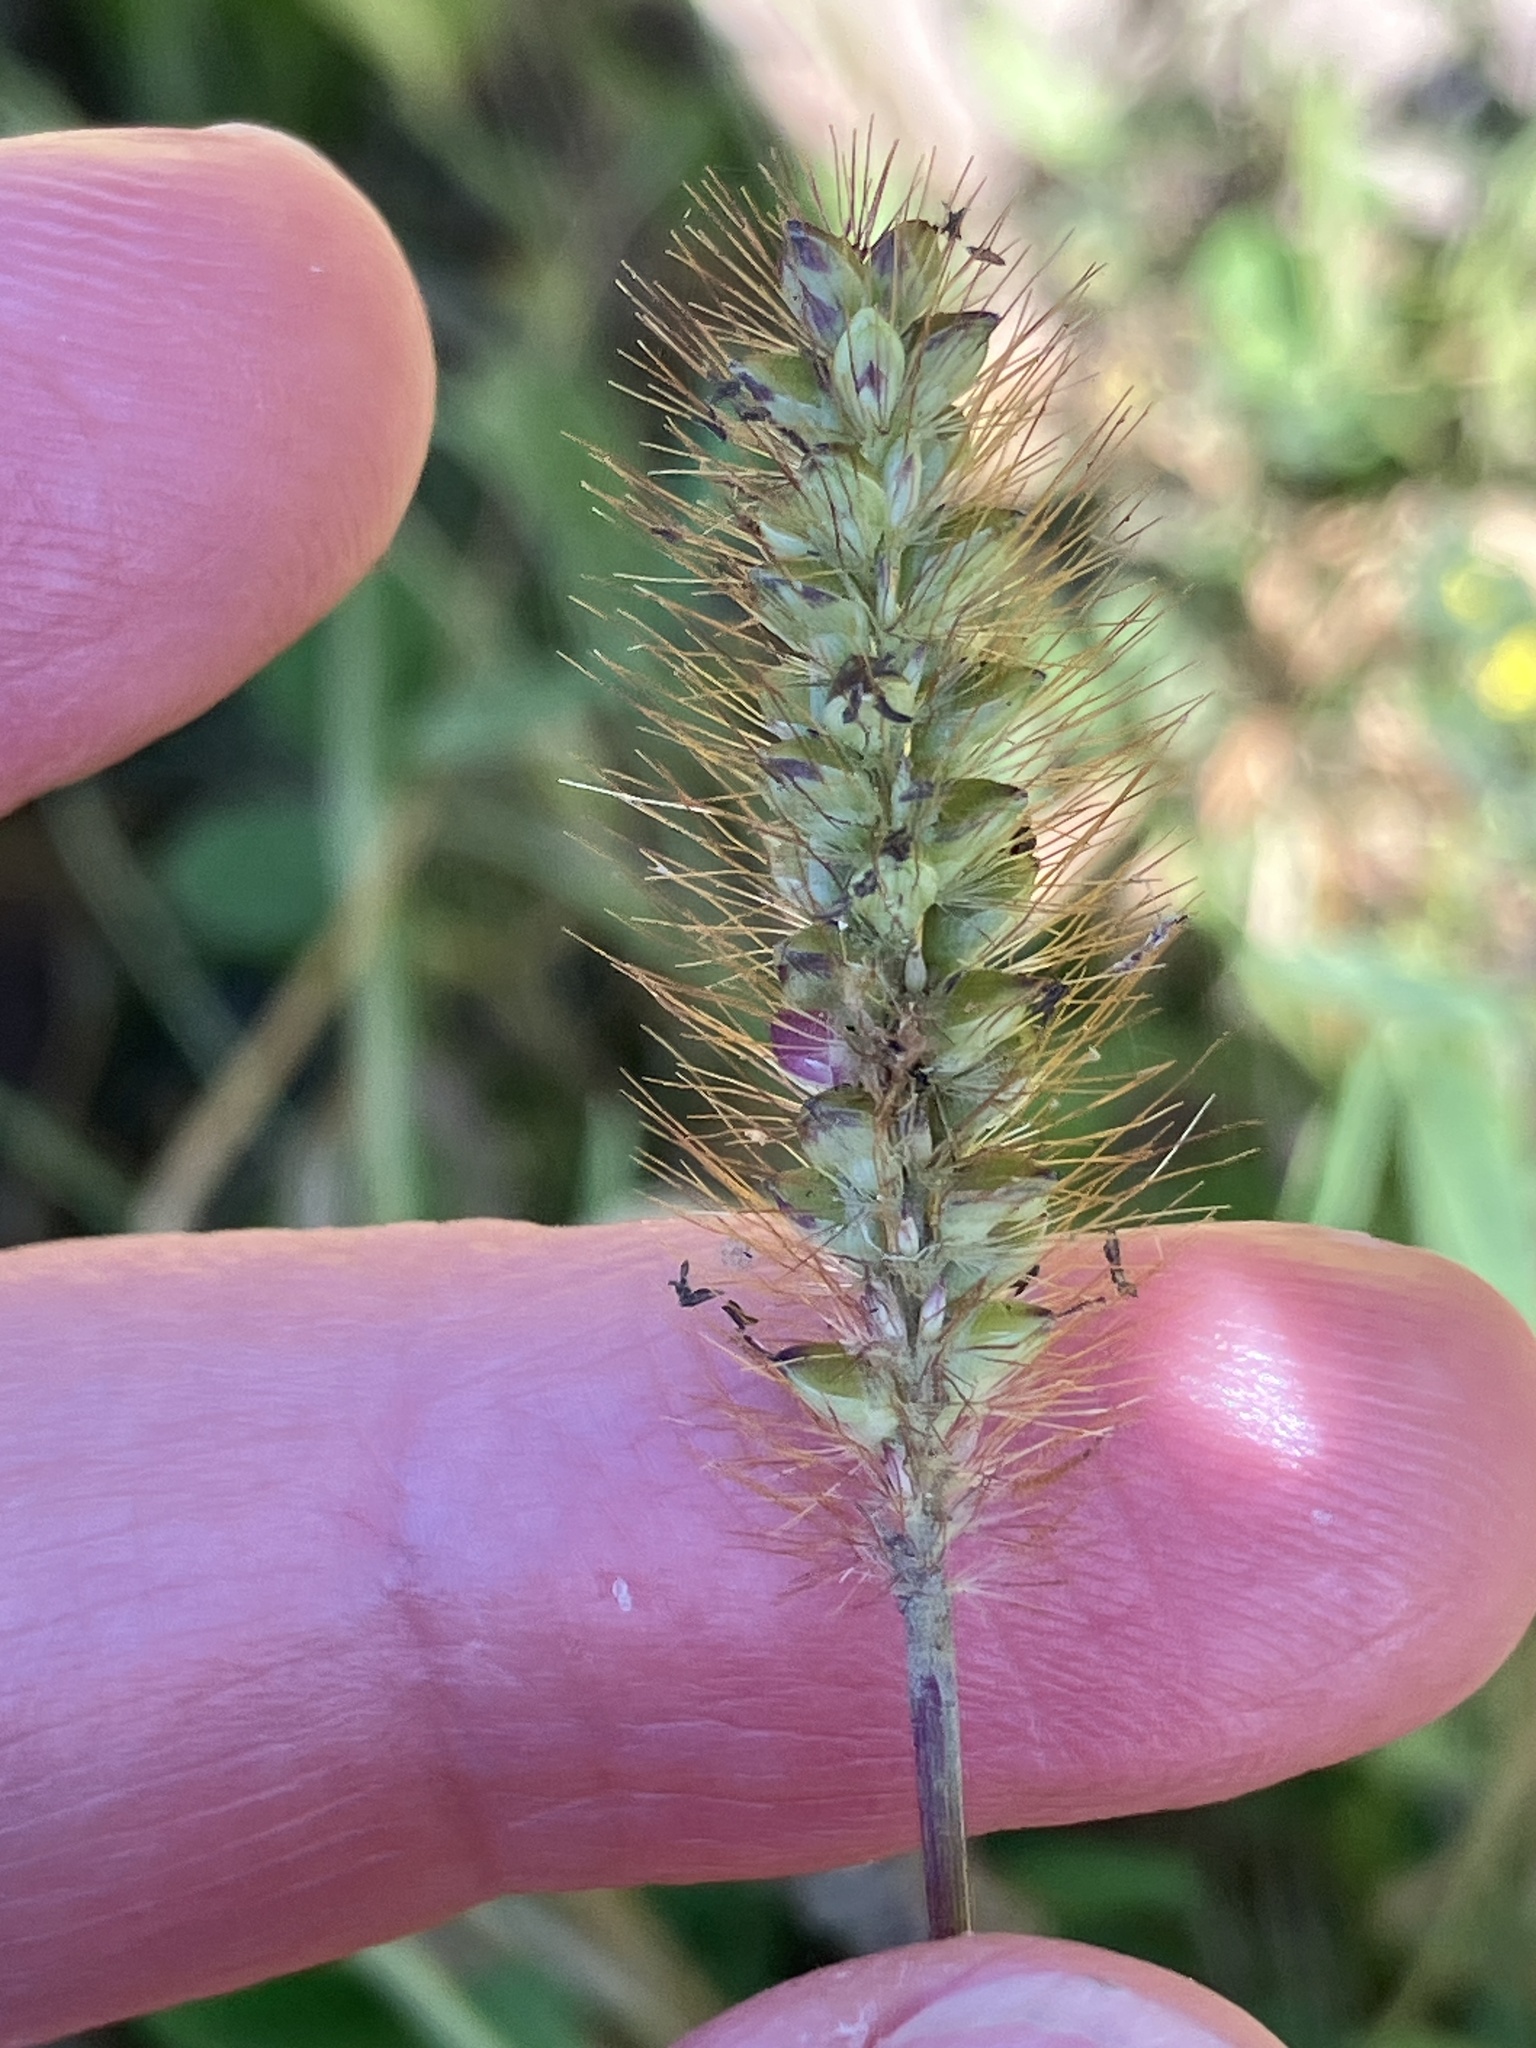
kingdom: Plantae
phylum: Tracheophyta
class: Liliopsida
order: Poales
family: Poaceae
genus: Setaria
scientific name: Setaria pumila
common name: Yellow bristle-grass
